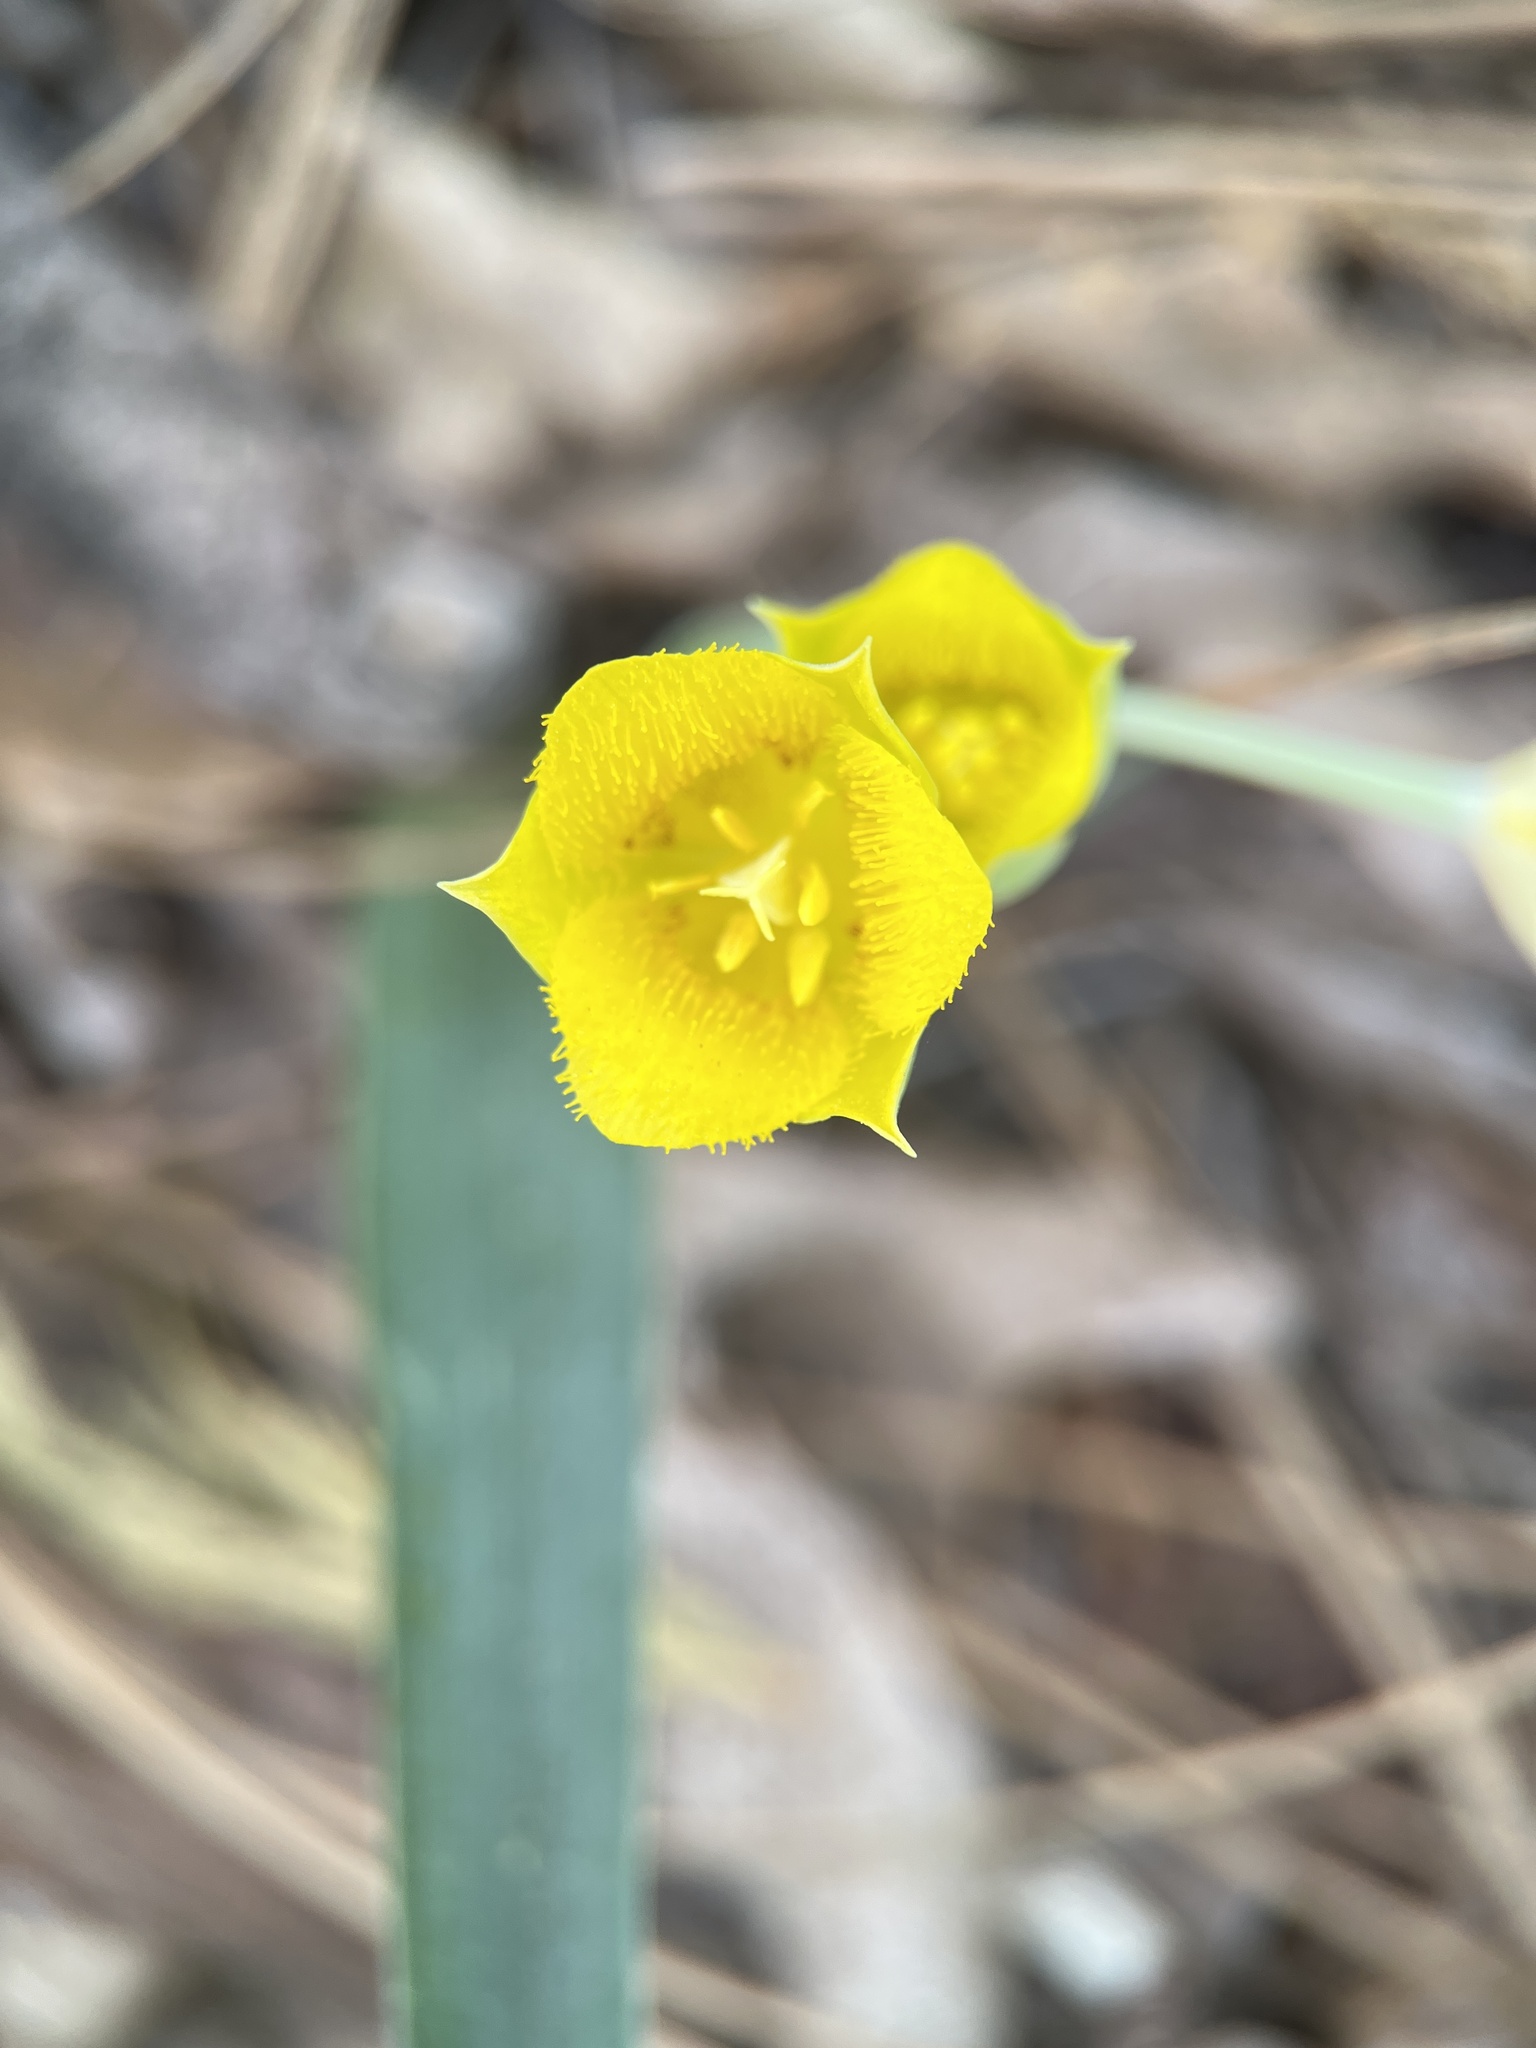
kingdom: Plantae
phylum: Tracheophyta
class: Liliopsida
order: Liliales
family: Liliaceae
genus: Calochortus
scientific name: Calochortus monophyllus
